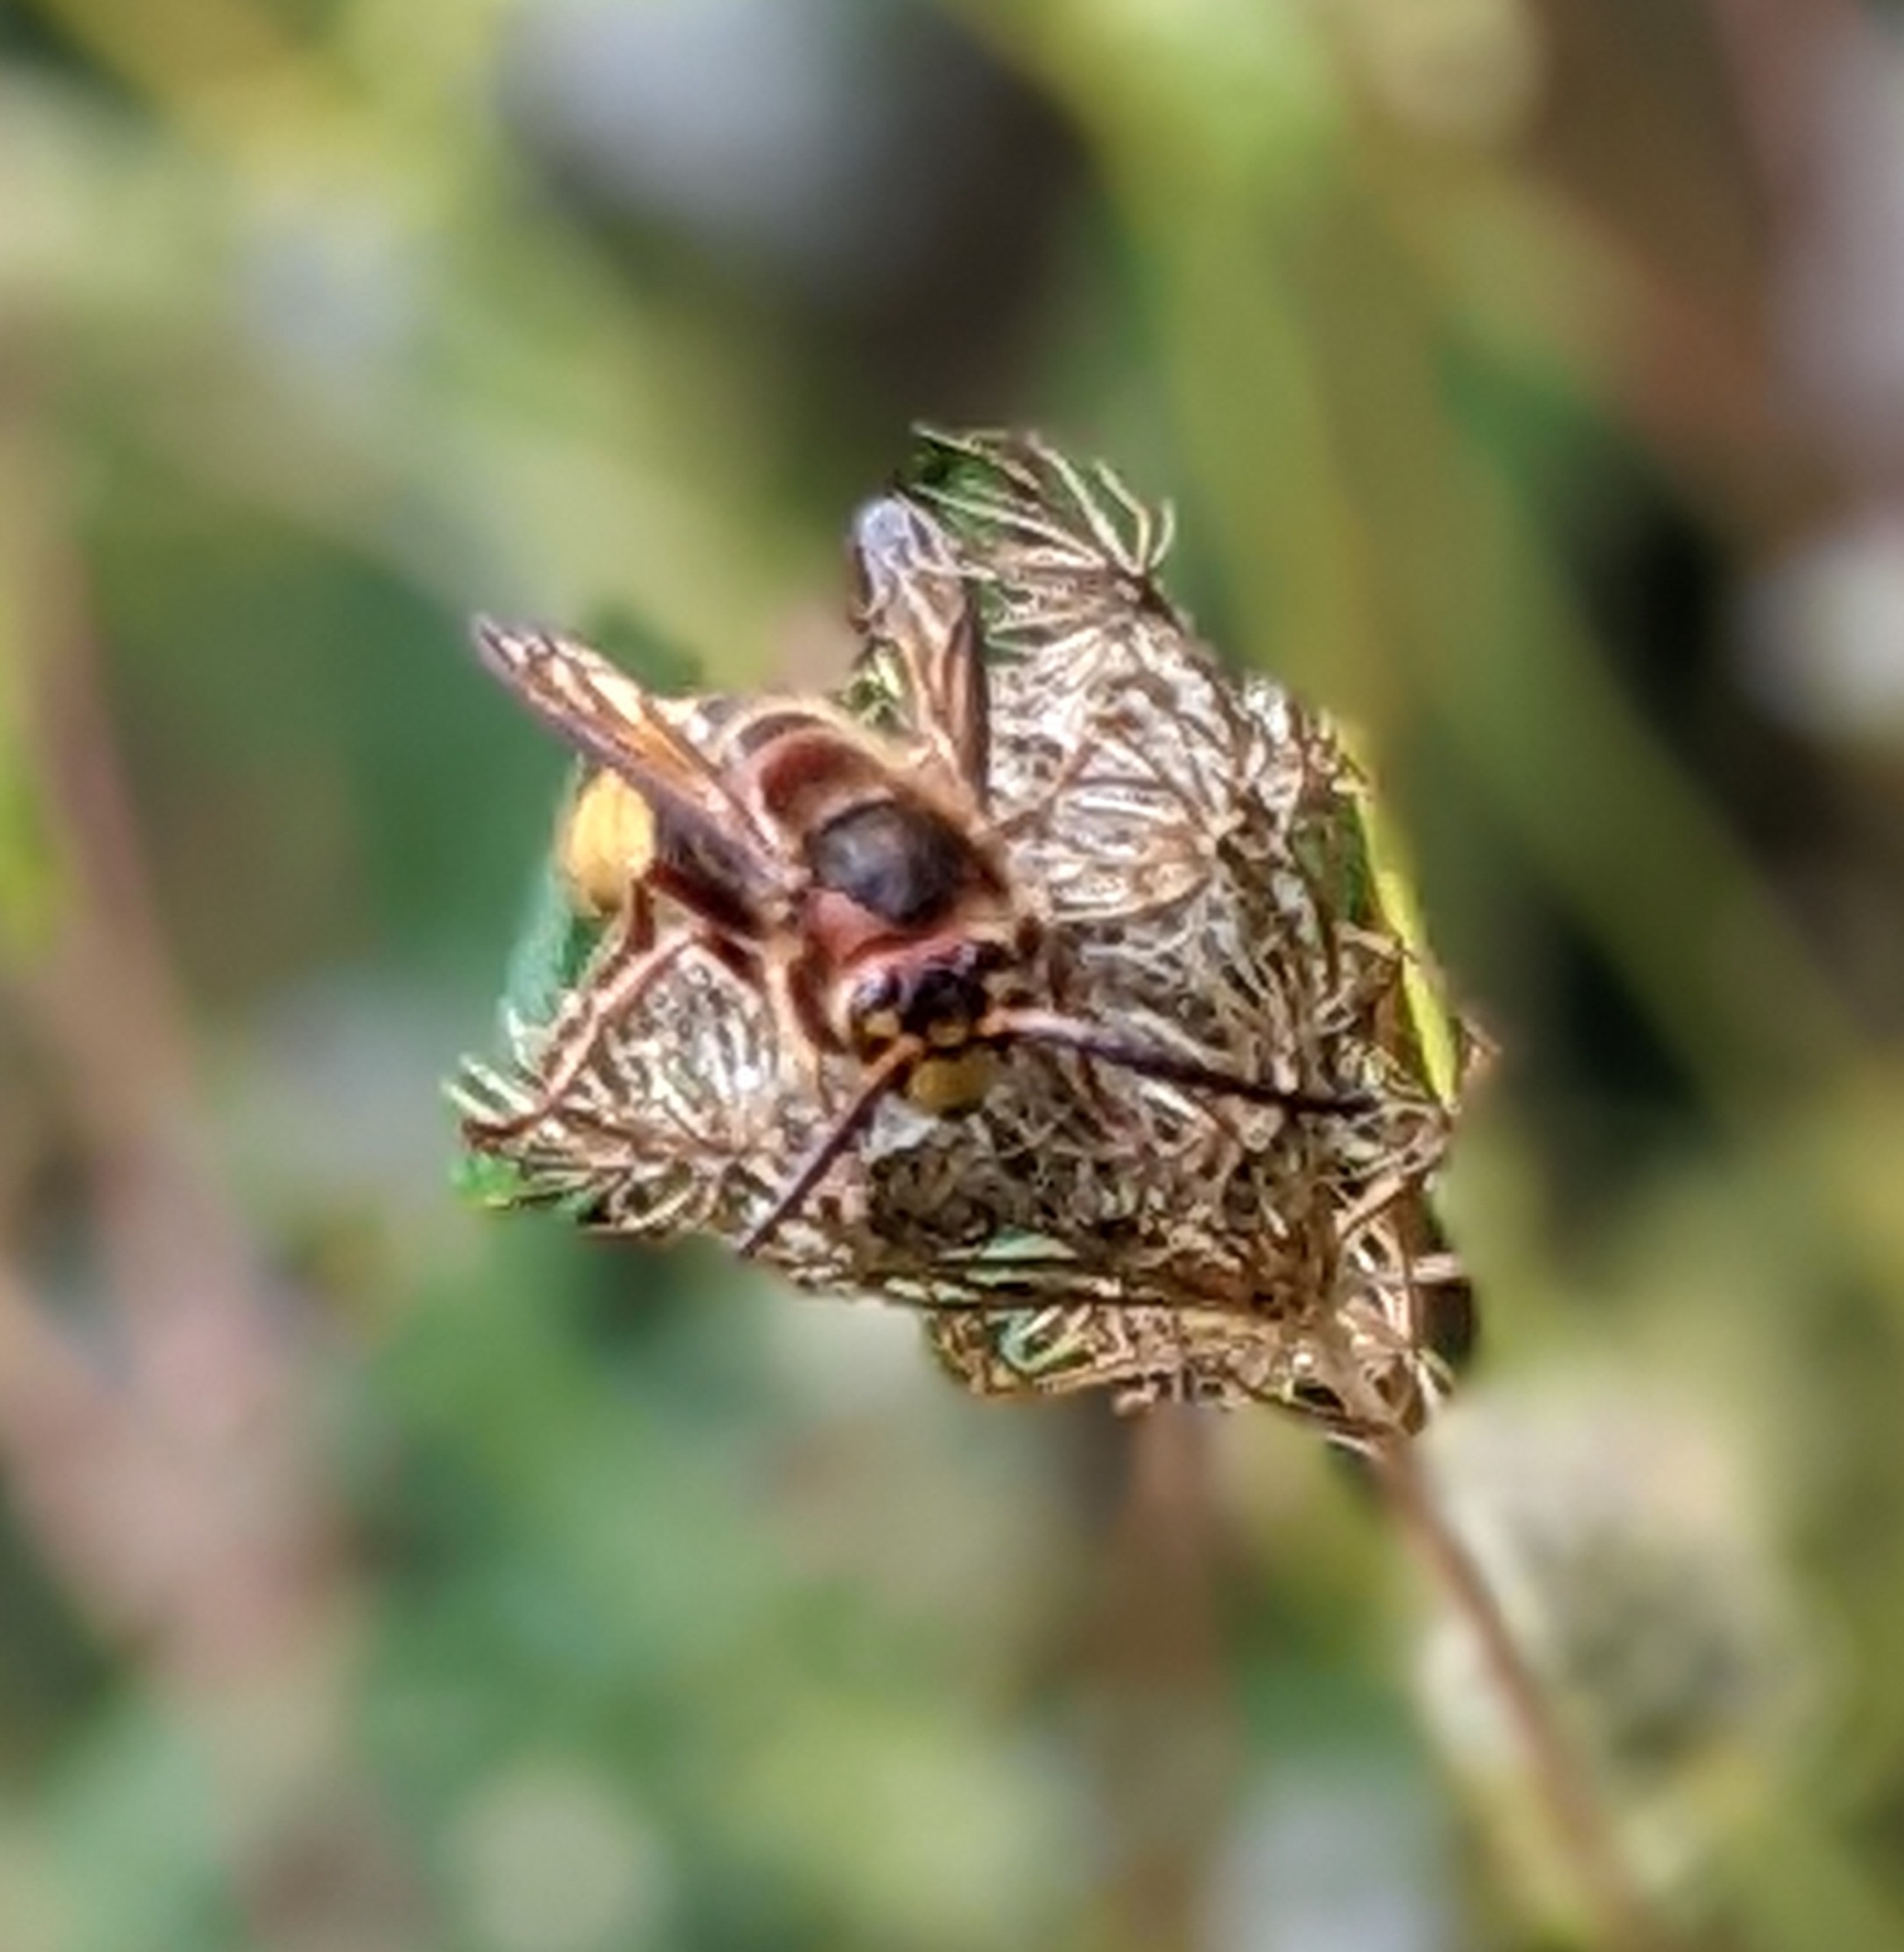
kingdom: Animalia
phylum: Arthropoda
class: Insecta
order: Hymenoptera
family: Vespidae
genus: Vespa
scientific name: Vespa crabro
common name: Hornet
